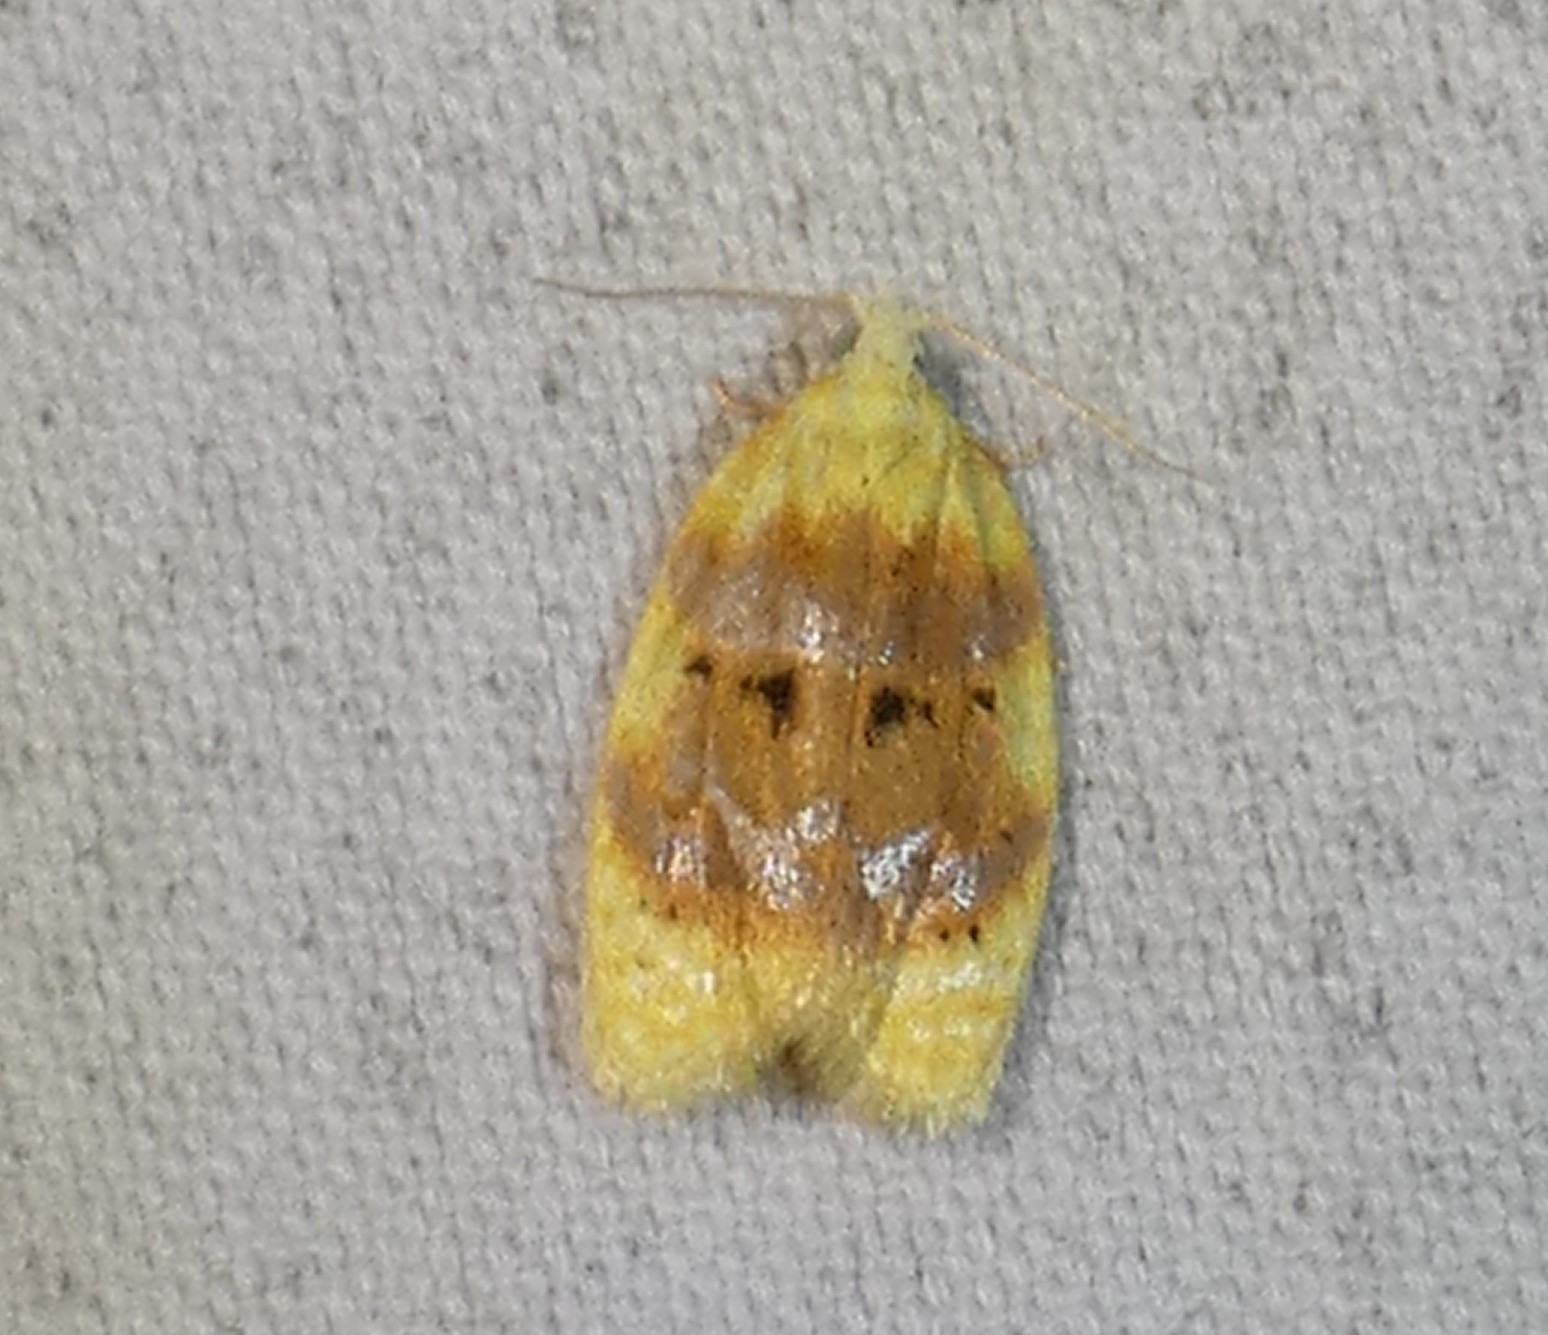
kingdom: Animalia
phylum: Arthropoda
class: Insecta
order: Lepidoptera
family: Tortricidae
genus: Acleris
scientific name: Acleris semipurpurana
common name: Oak leaftier moth
